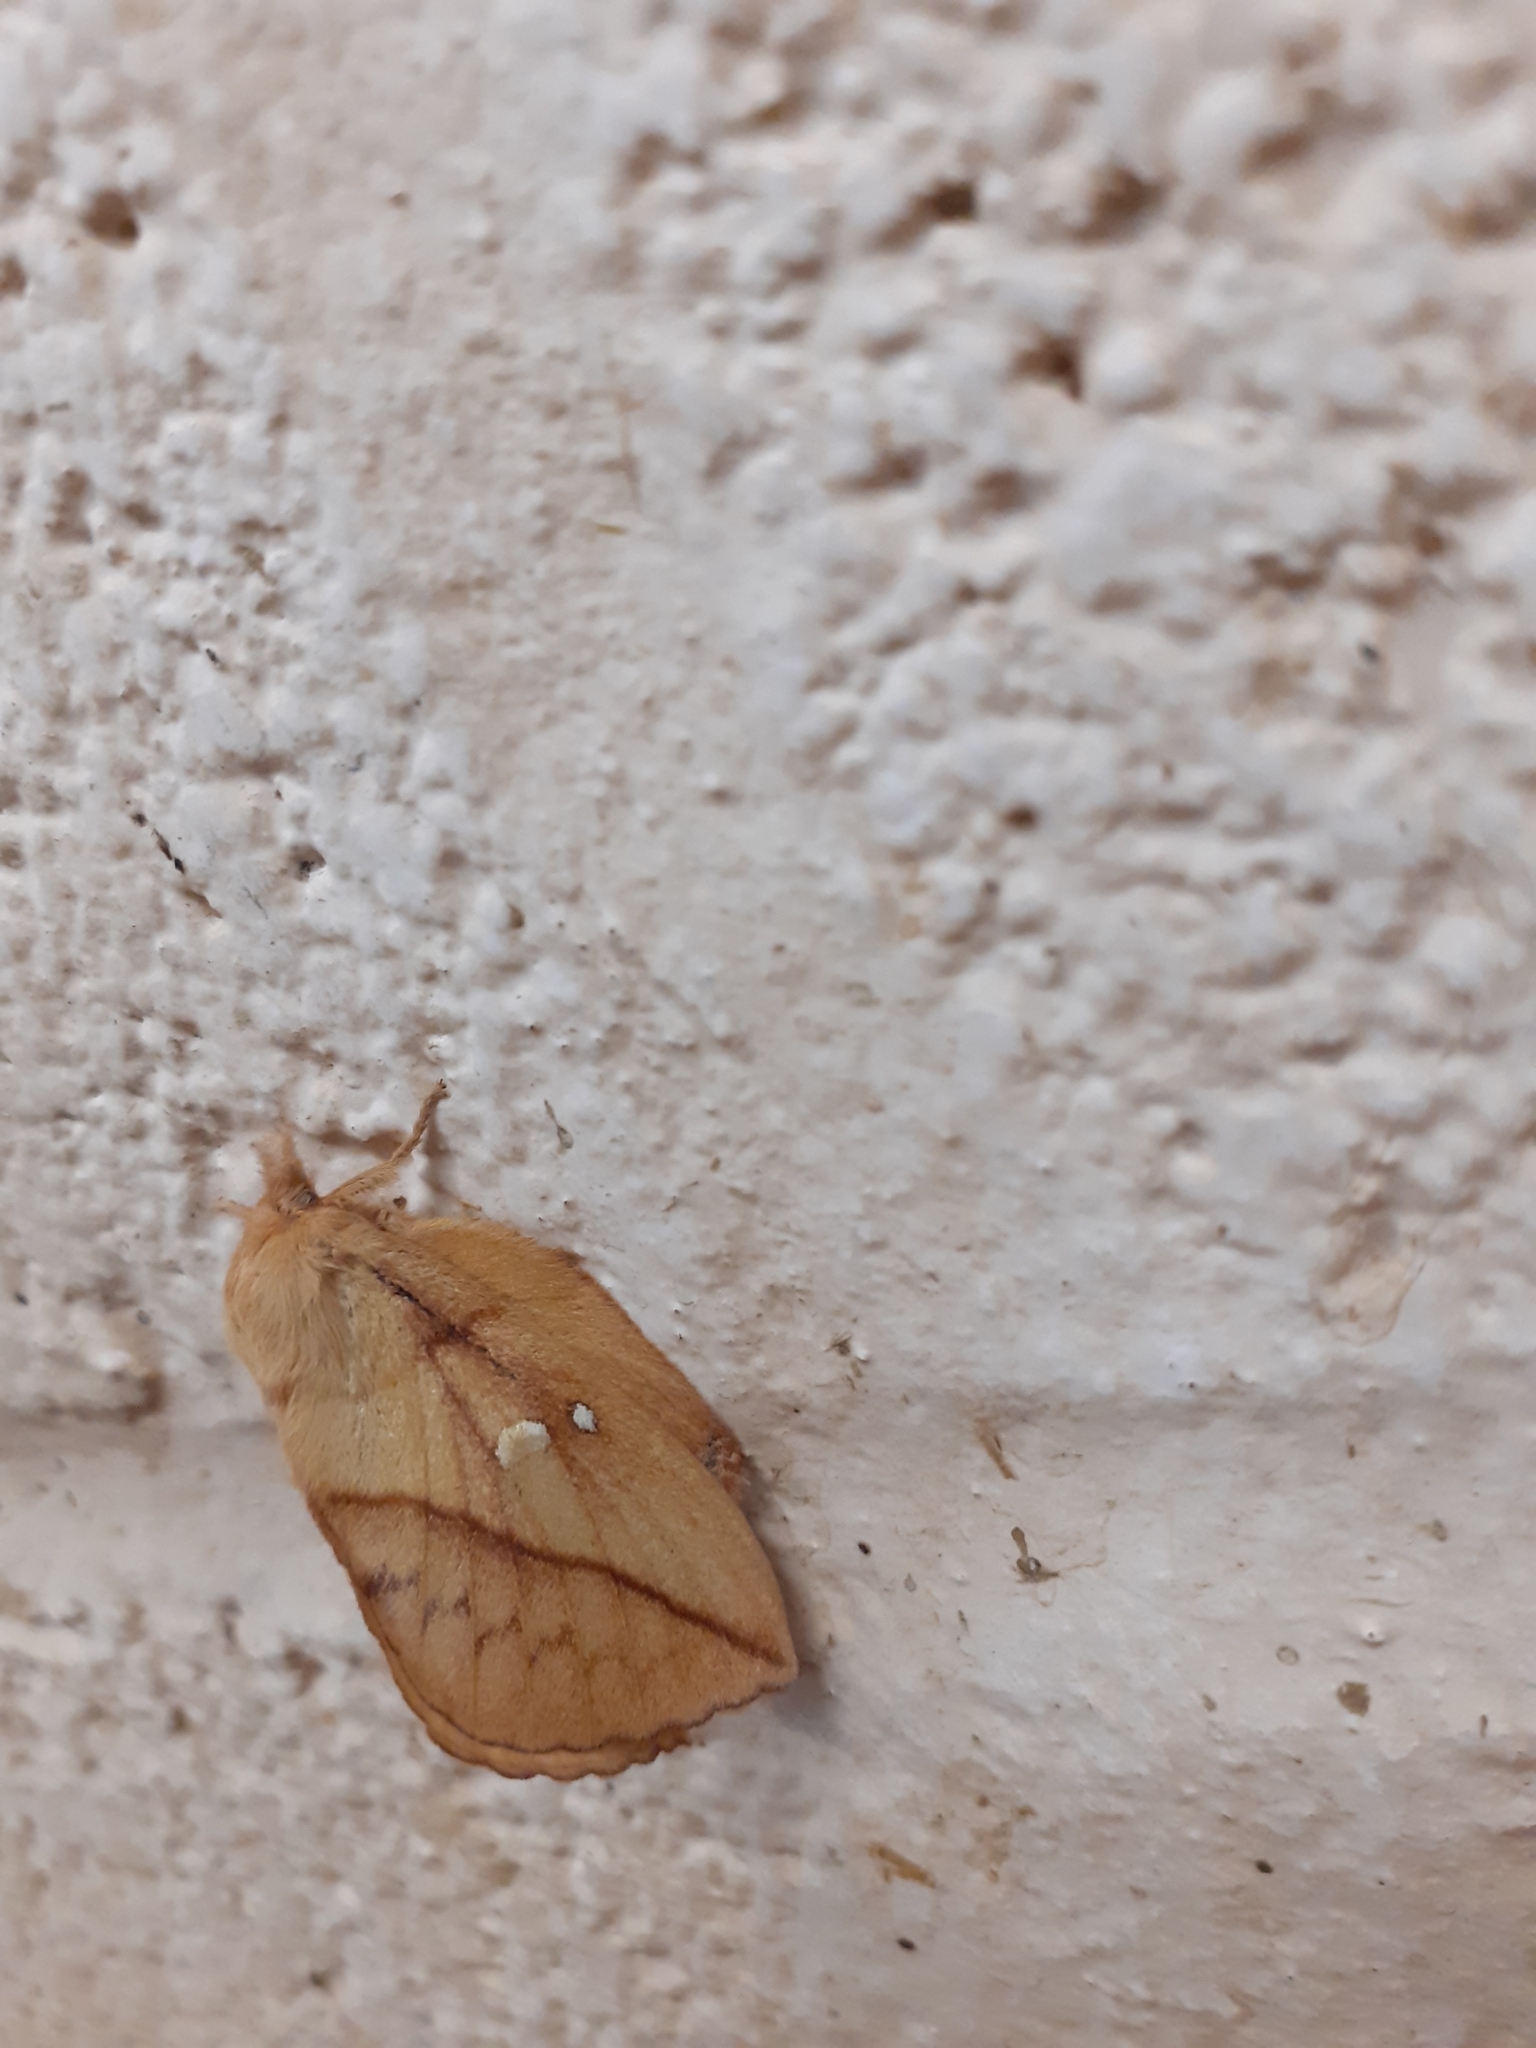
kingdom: Animalia
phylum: Arthropoda
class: Insecta
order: Lepidoptera
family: Lasiocampidae
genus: Euthrix
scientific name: Euthrix potatoria
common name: Drinker
